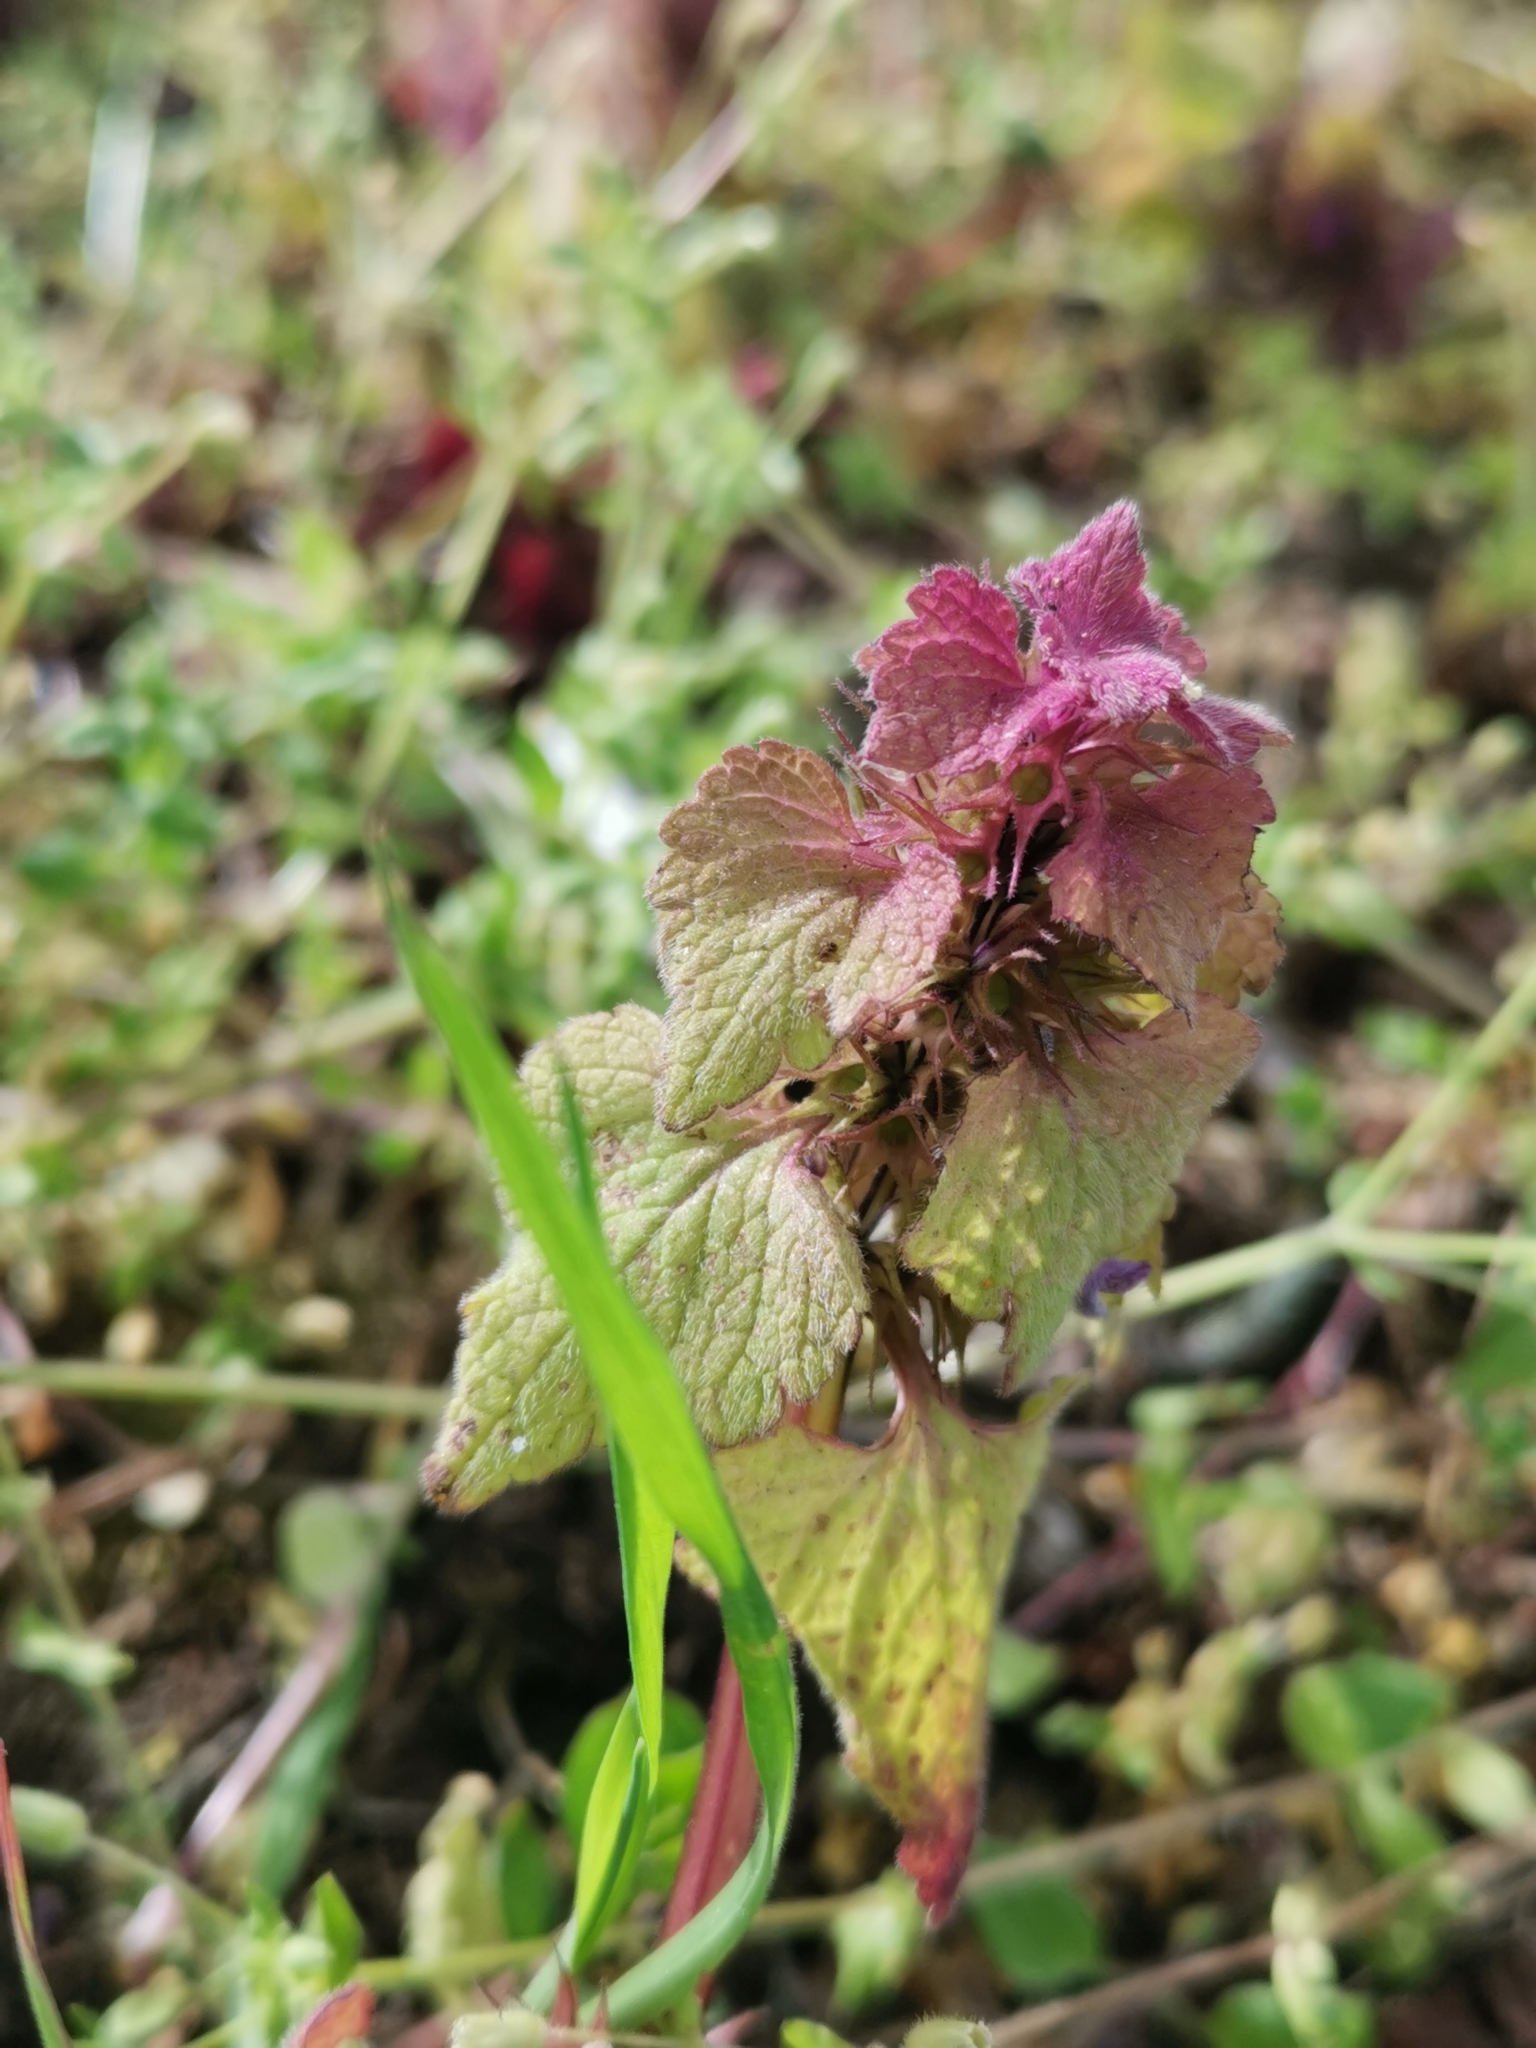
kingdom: Plantae
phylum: Tracheophyta
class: Magnoliopsida
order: Lamiales
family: Lamiaceae
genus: Lamium
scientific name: Lamium purpureum
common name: Red dead-nettle
